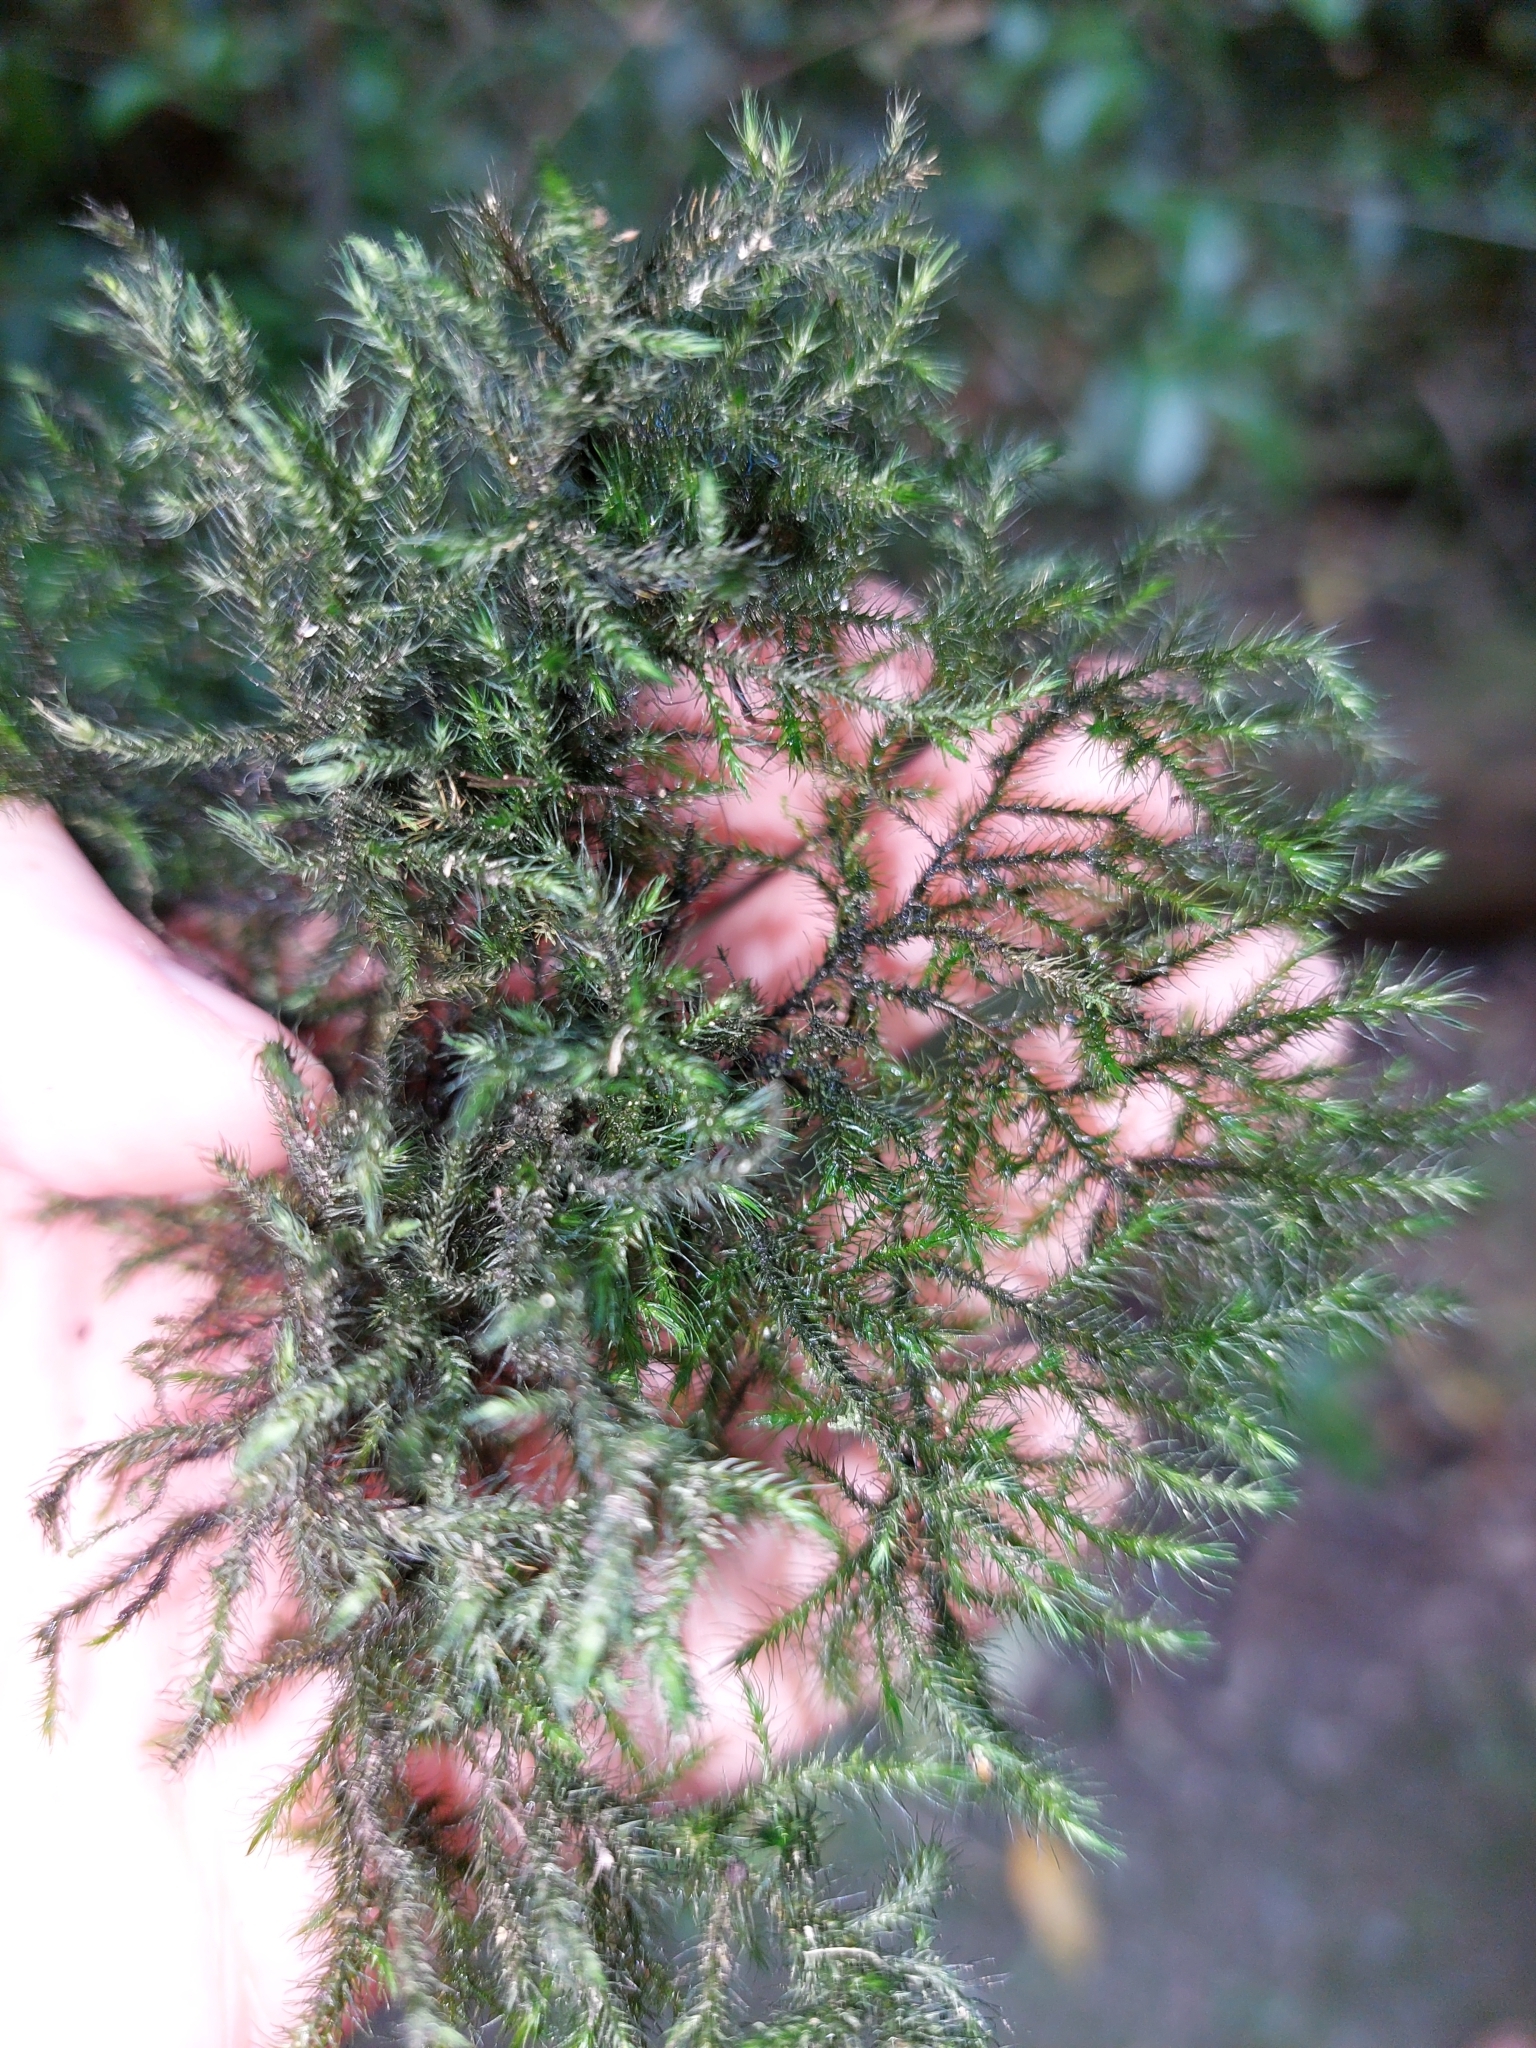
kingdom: Plantae
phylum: Bryophyta
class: Bryopsida
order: Hypnales
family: Neckeraceae
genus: Echinodiopsis
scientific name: Echinodiopsis hispida
